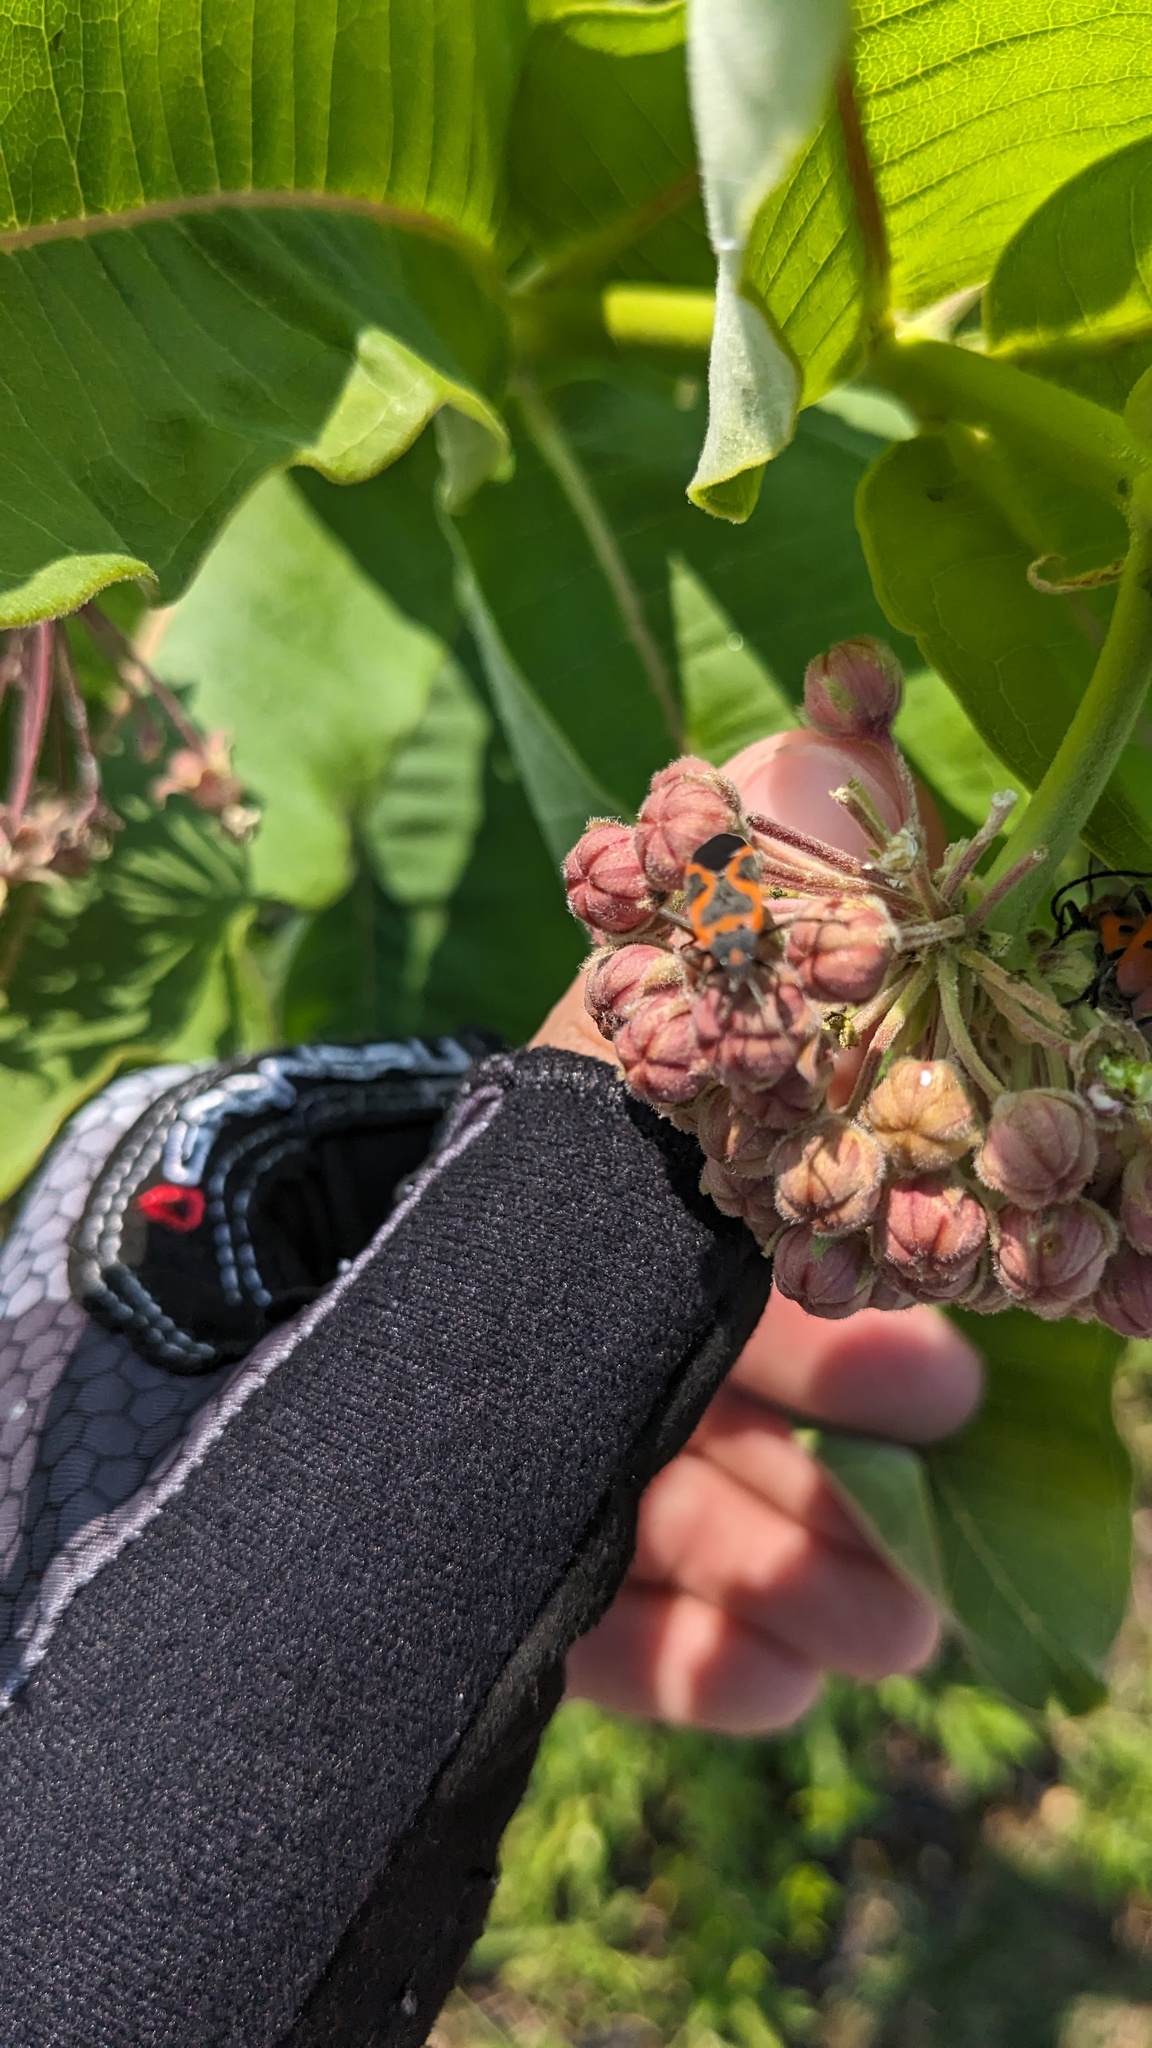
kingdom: Animalia
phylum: Arthropoda
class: Insecta
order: Hemiptera
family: Lygaeidae
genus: Lygaeus
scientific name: Lygaeus kalmii
